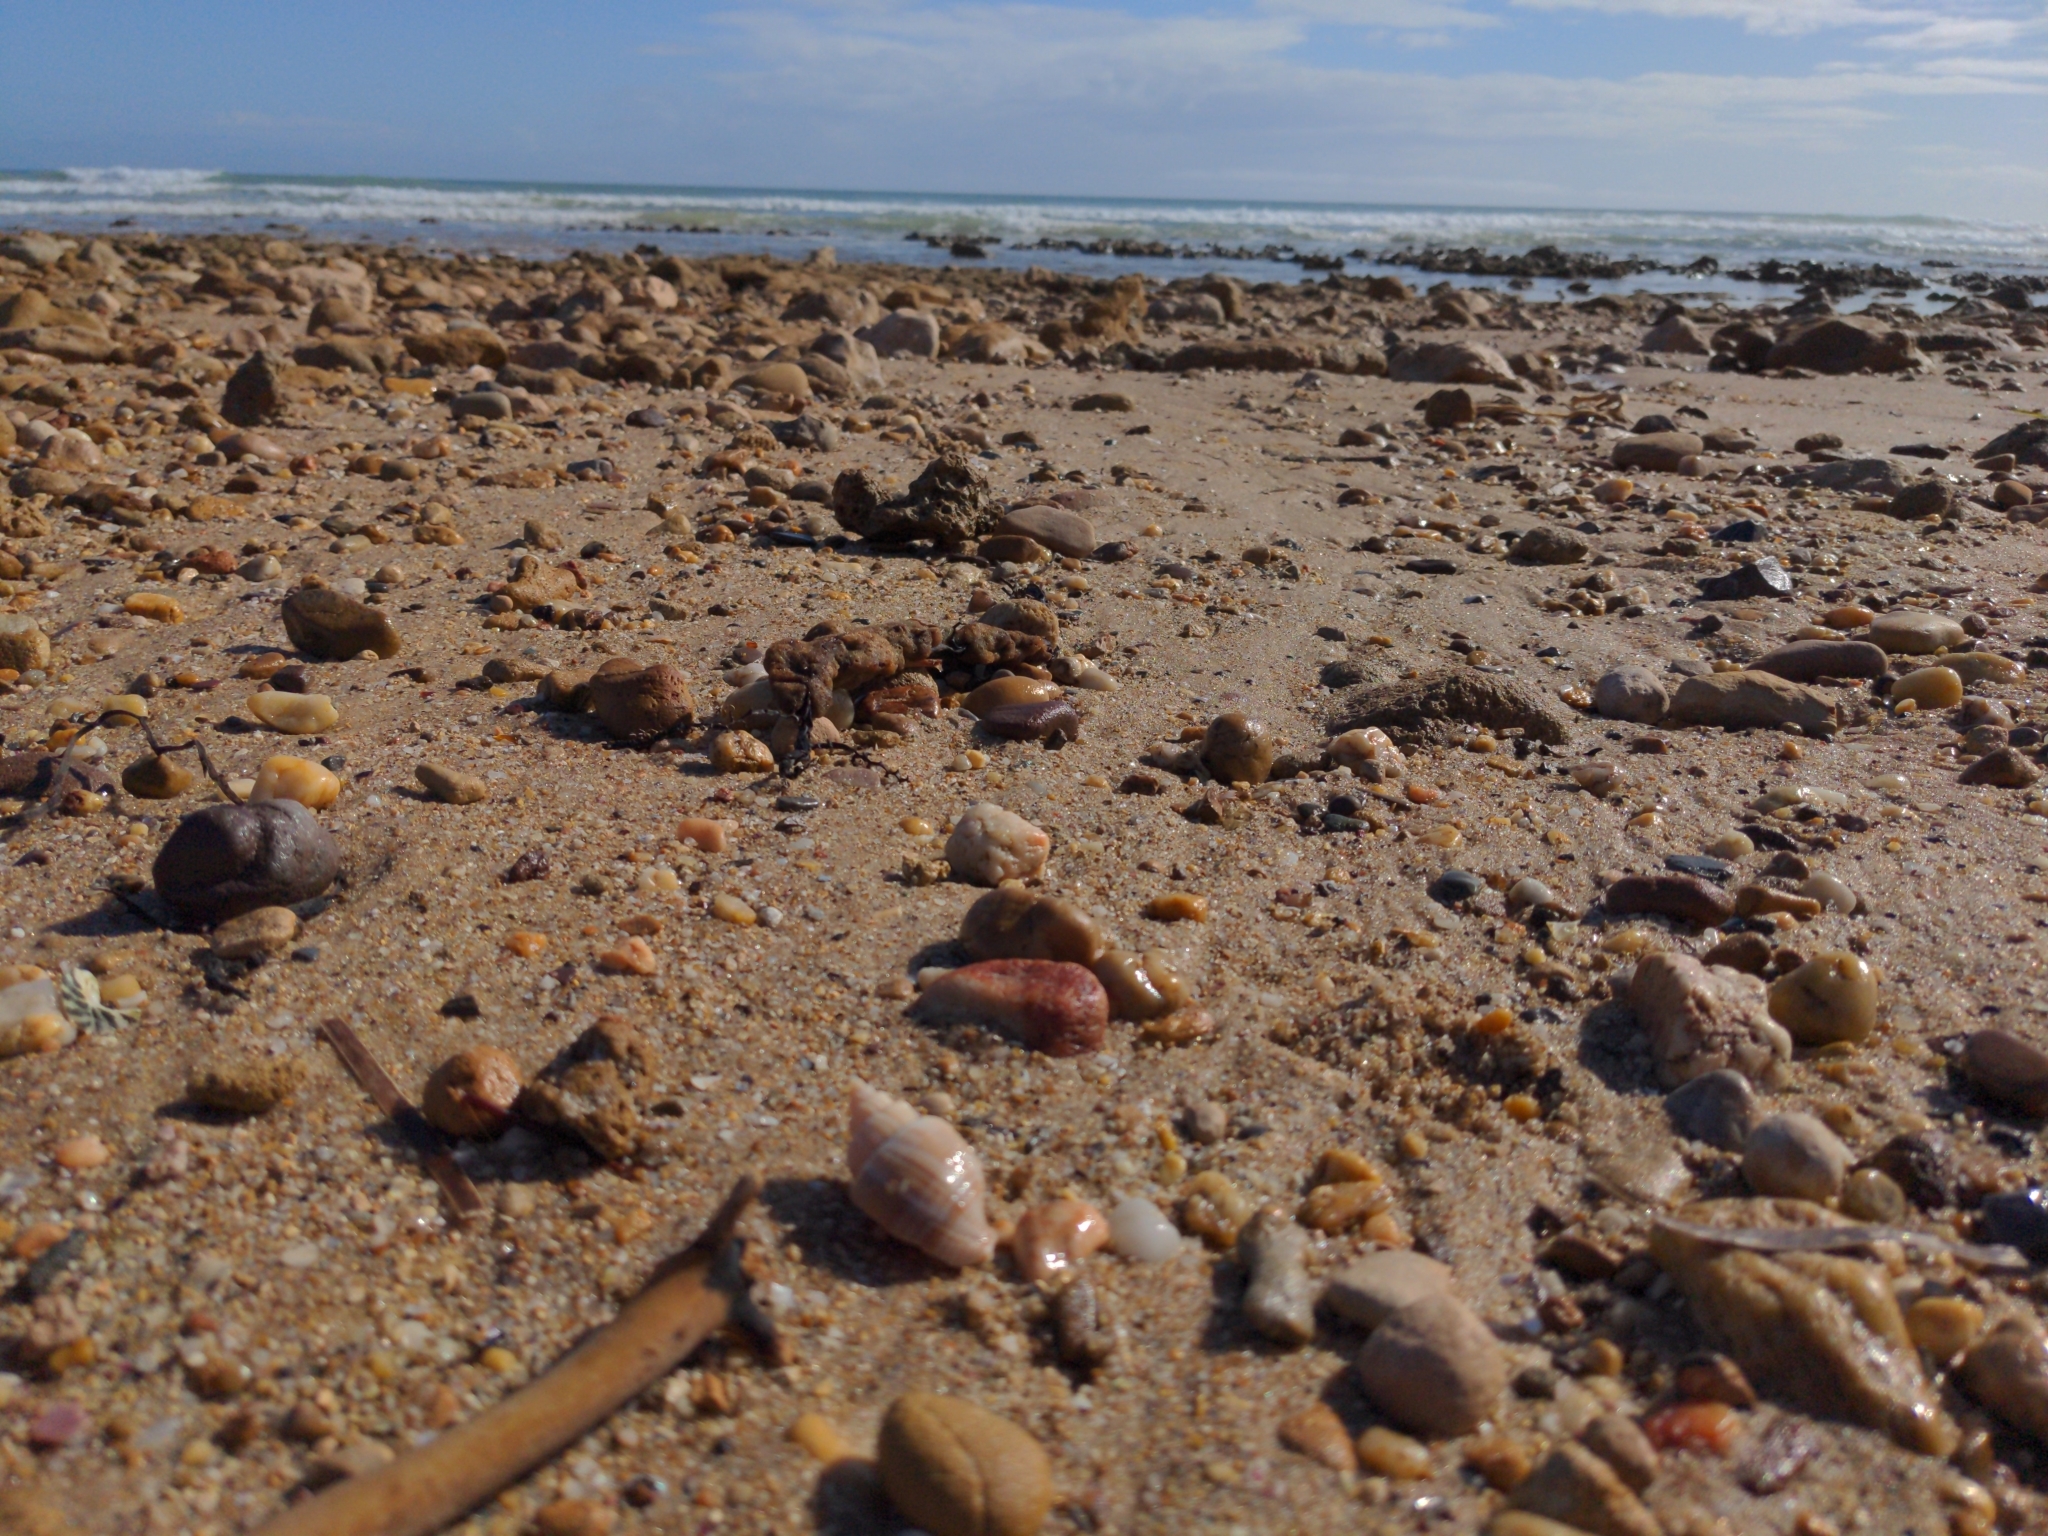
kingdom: Animalia
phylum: Mollusca
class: Gastropoda
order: Neogastropoda
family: Cancellariidae
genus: Merica
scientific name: Merica undulata
